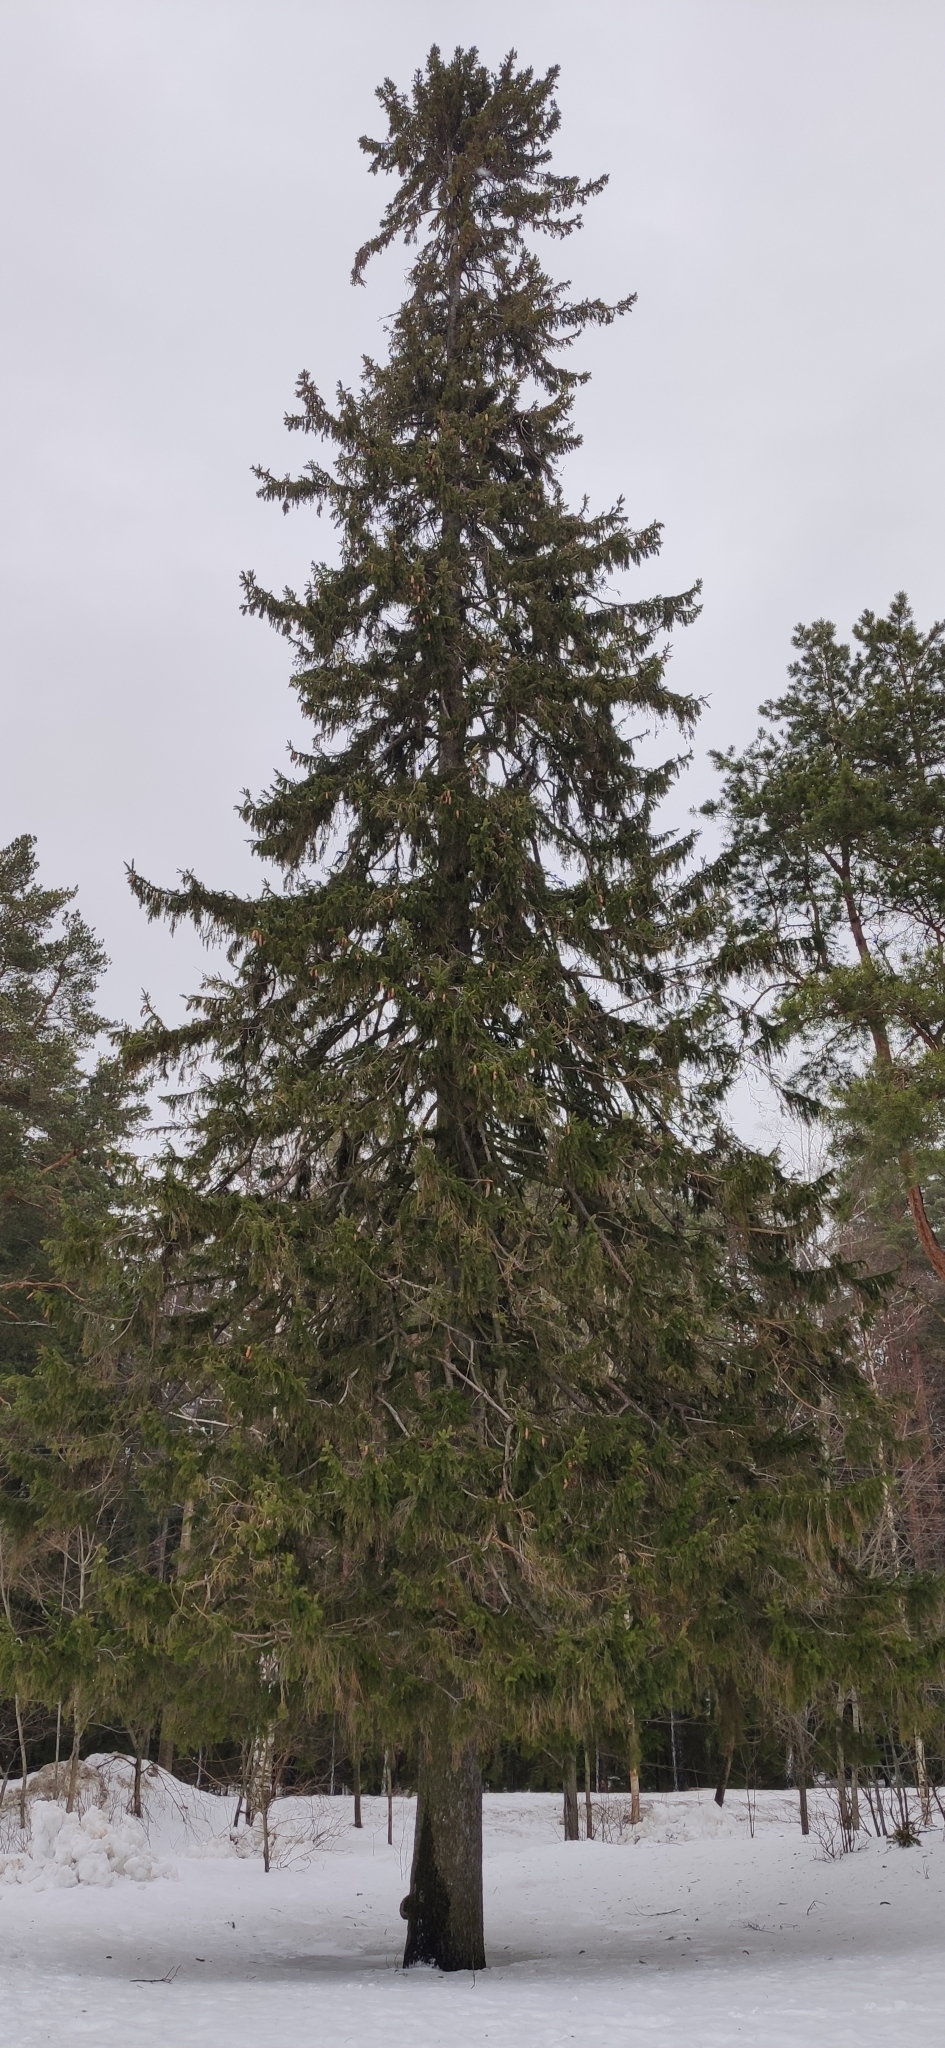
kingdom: Plantae
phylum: Tracheophyta
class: Pinopsida
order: Pinales
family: Pinaceae
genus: Picea
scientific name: Picea abies
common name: Norway spruce
